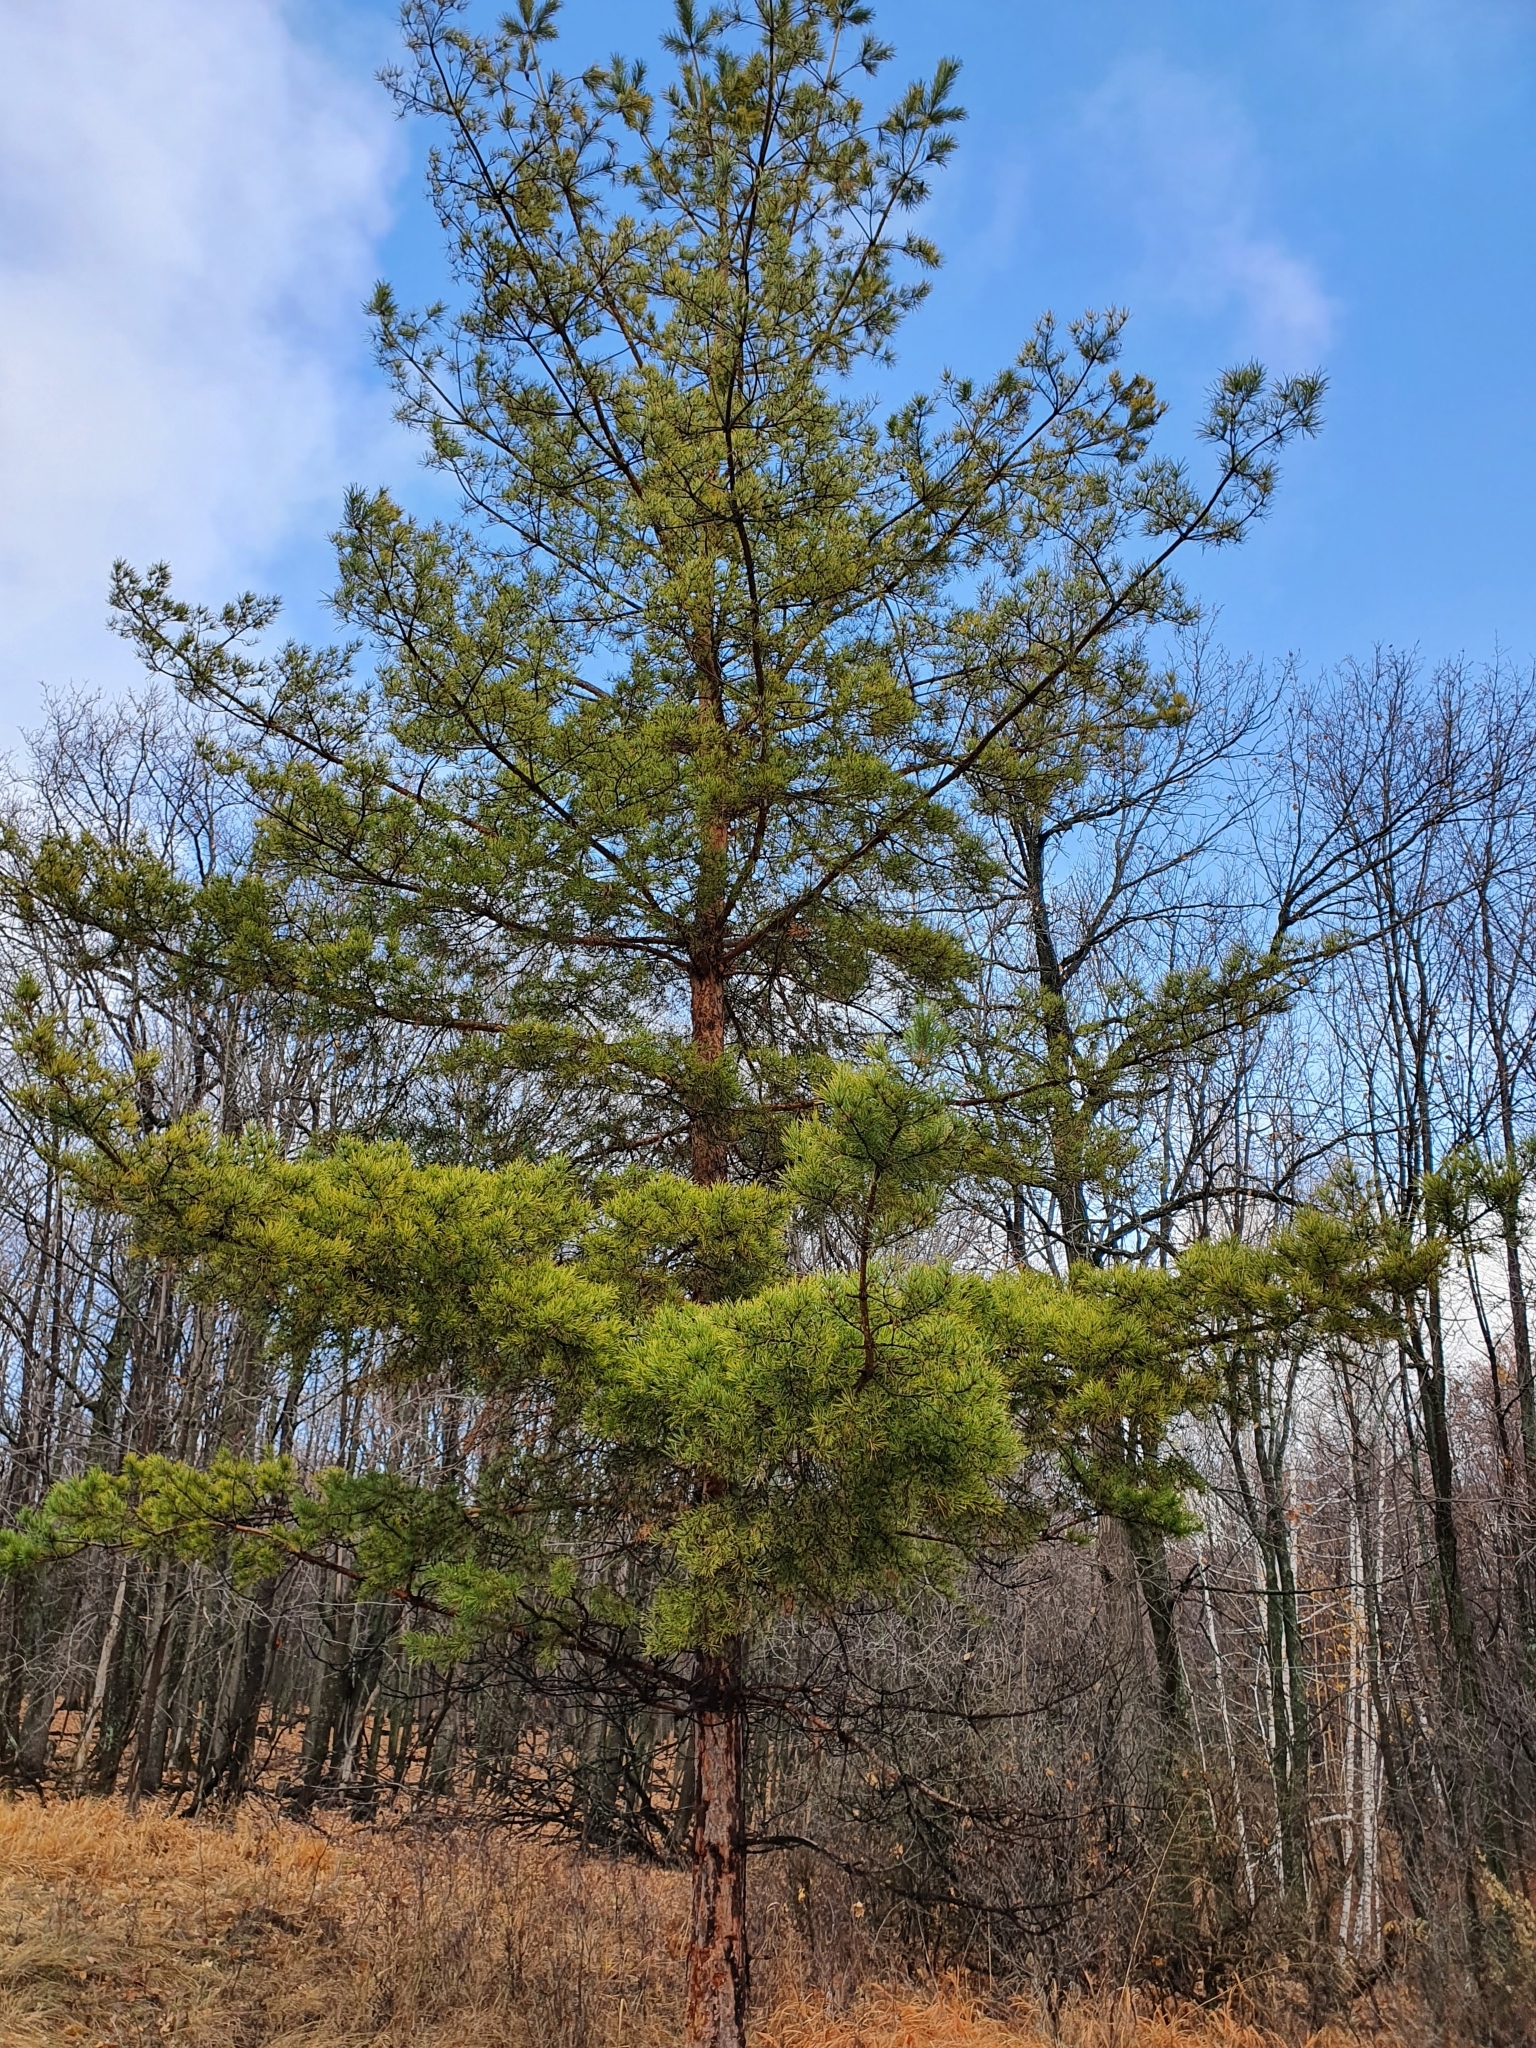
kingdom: Plantae
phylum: Tracheophyta
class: Pinopsida
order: Pinales
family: Pinaceae
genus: Pinus
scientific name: Pinus sylvestris
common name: Scots pine
